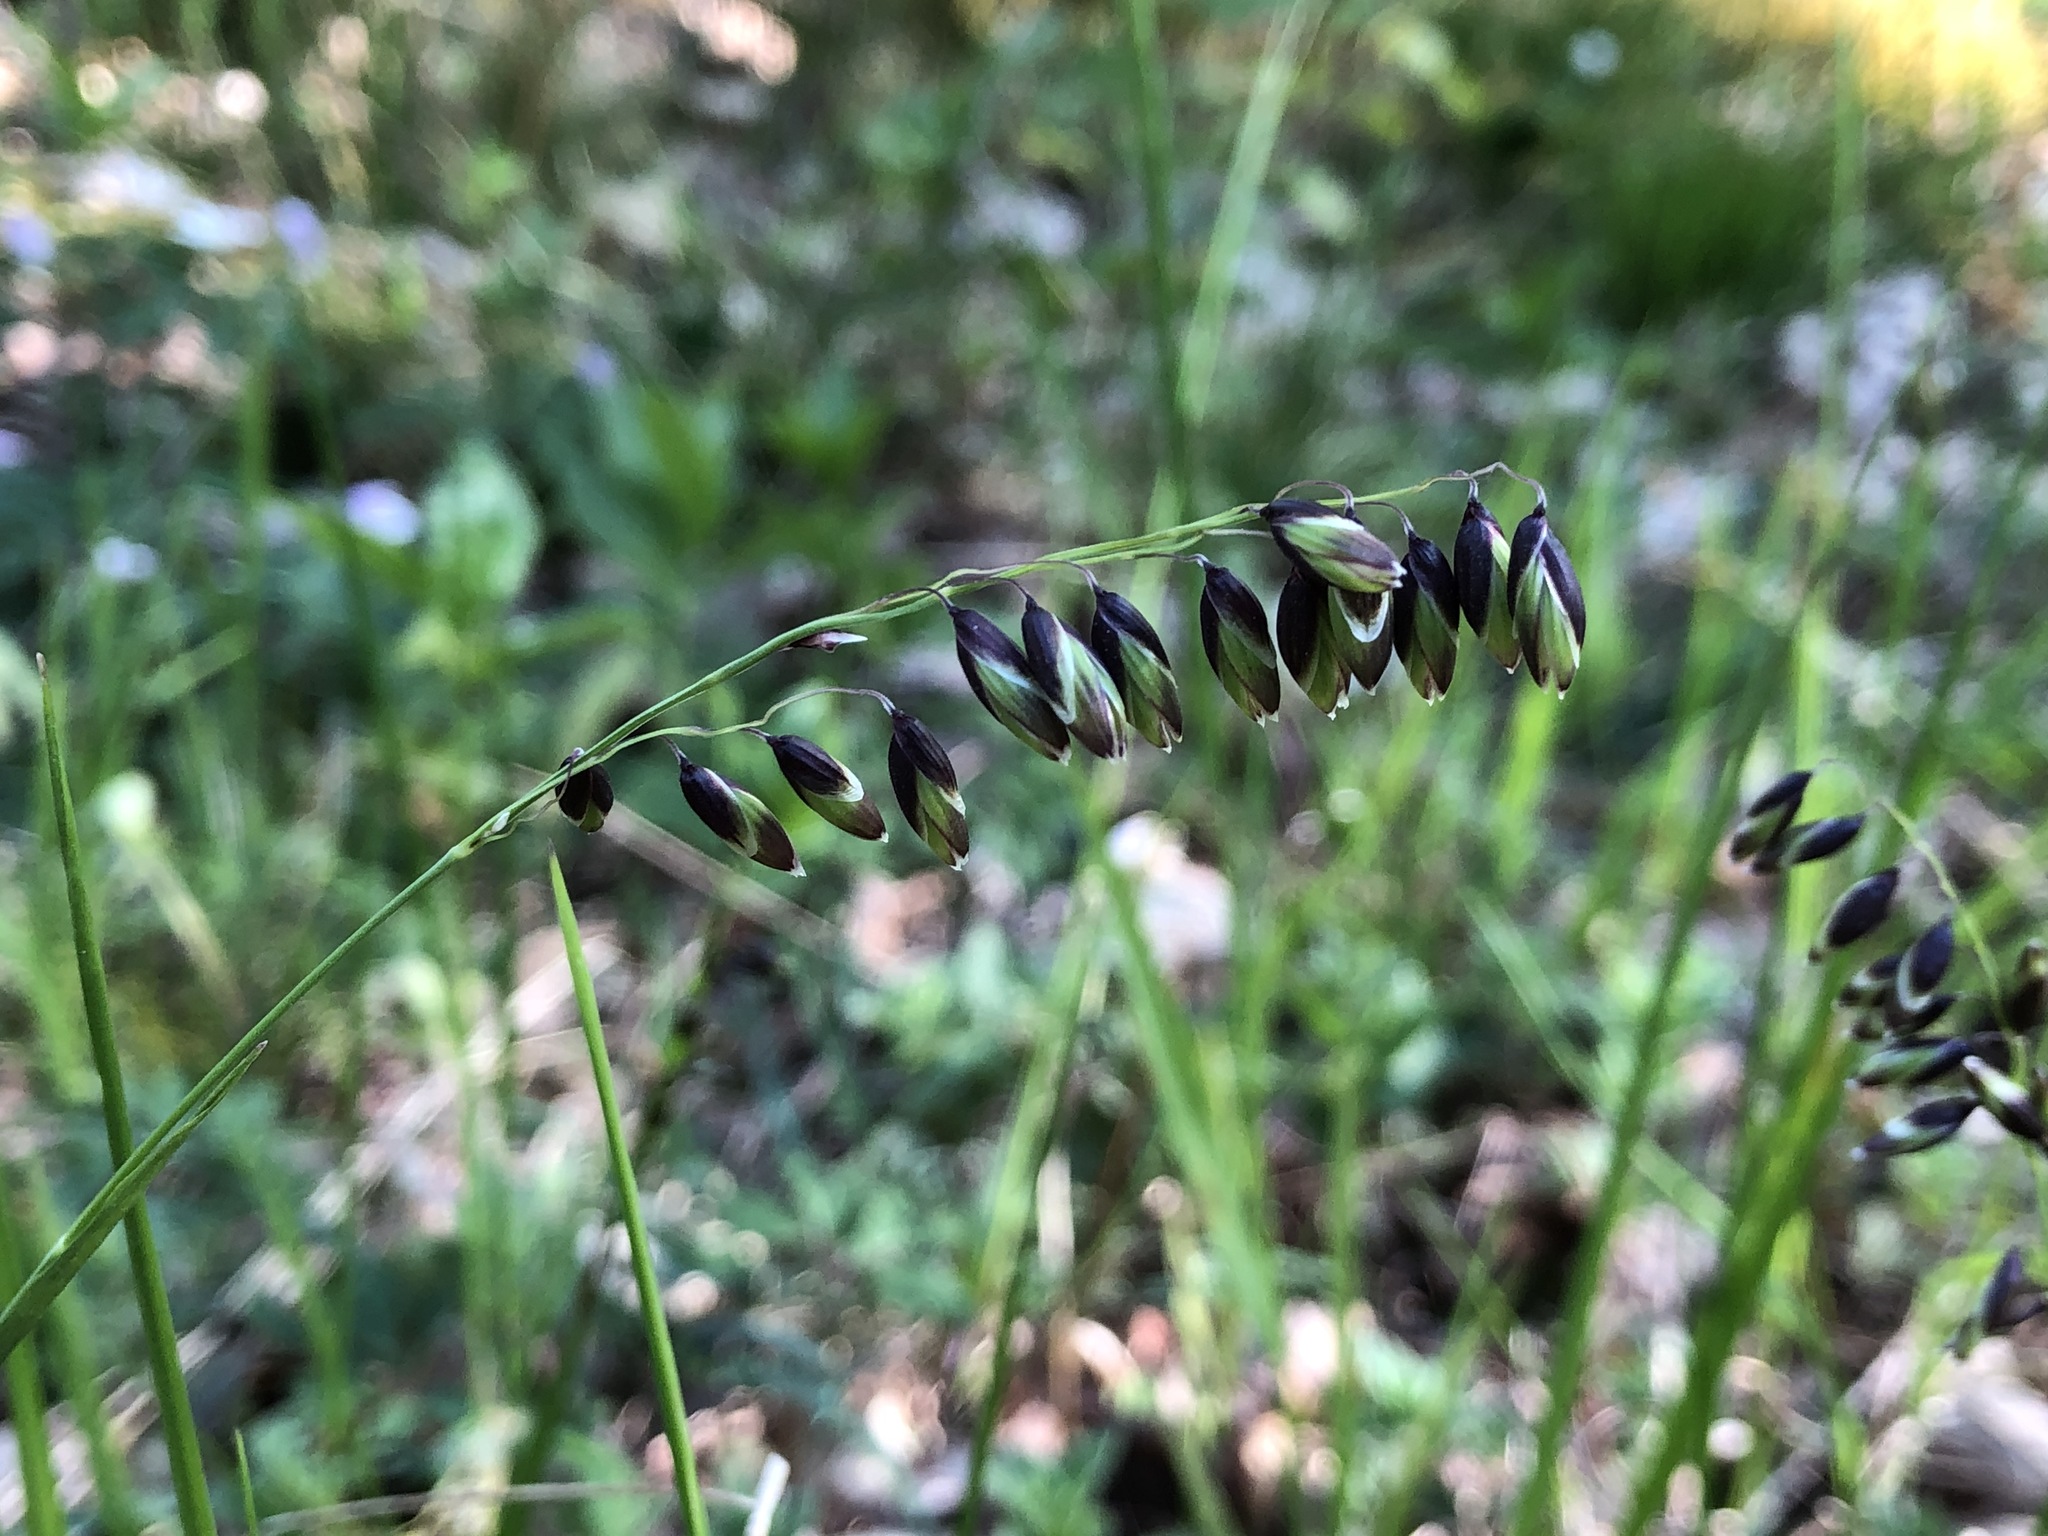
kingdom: Plantae
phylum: Tracheophyta
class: Liliopsida
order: Poales
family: Poaceae
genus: Melica
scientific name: Melica nutans
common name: Mountain melick
